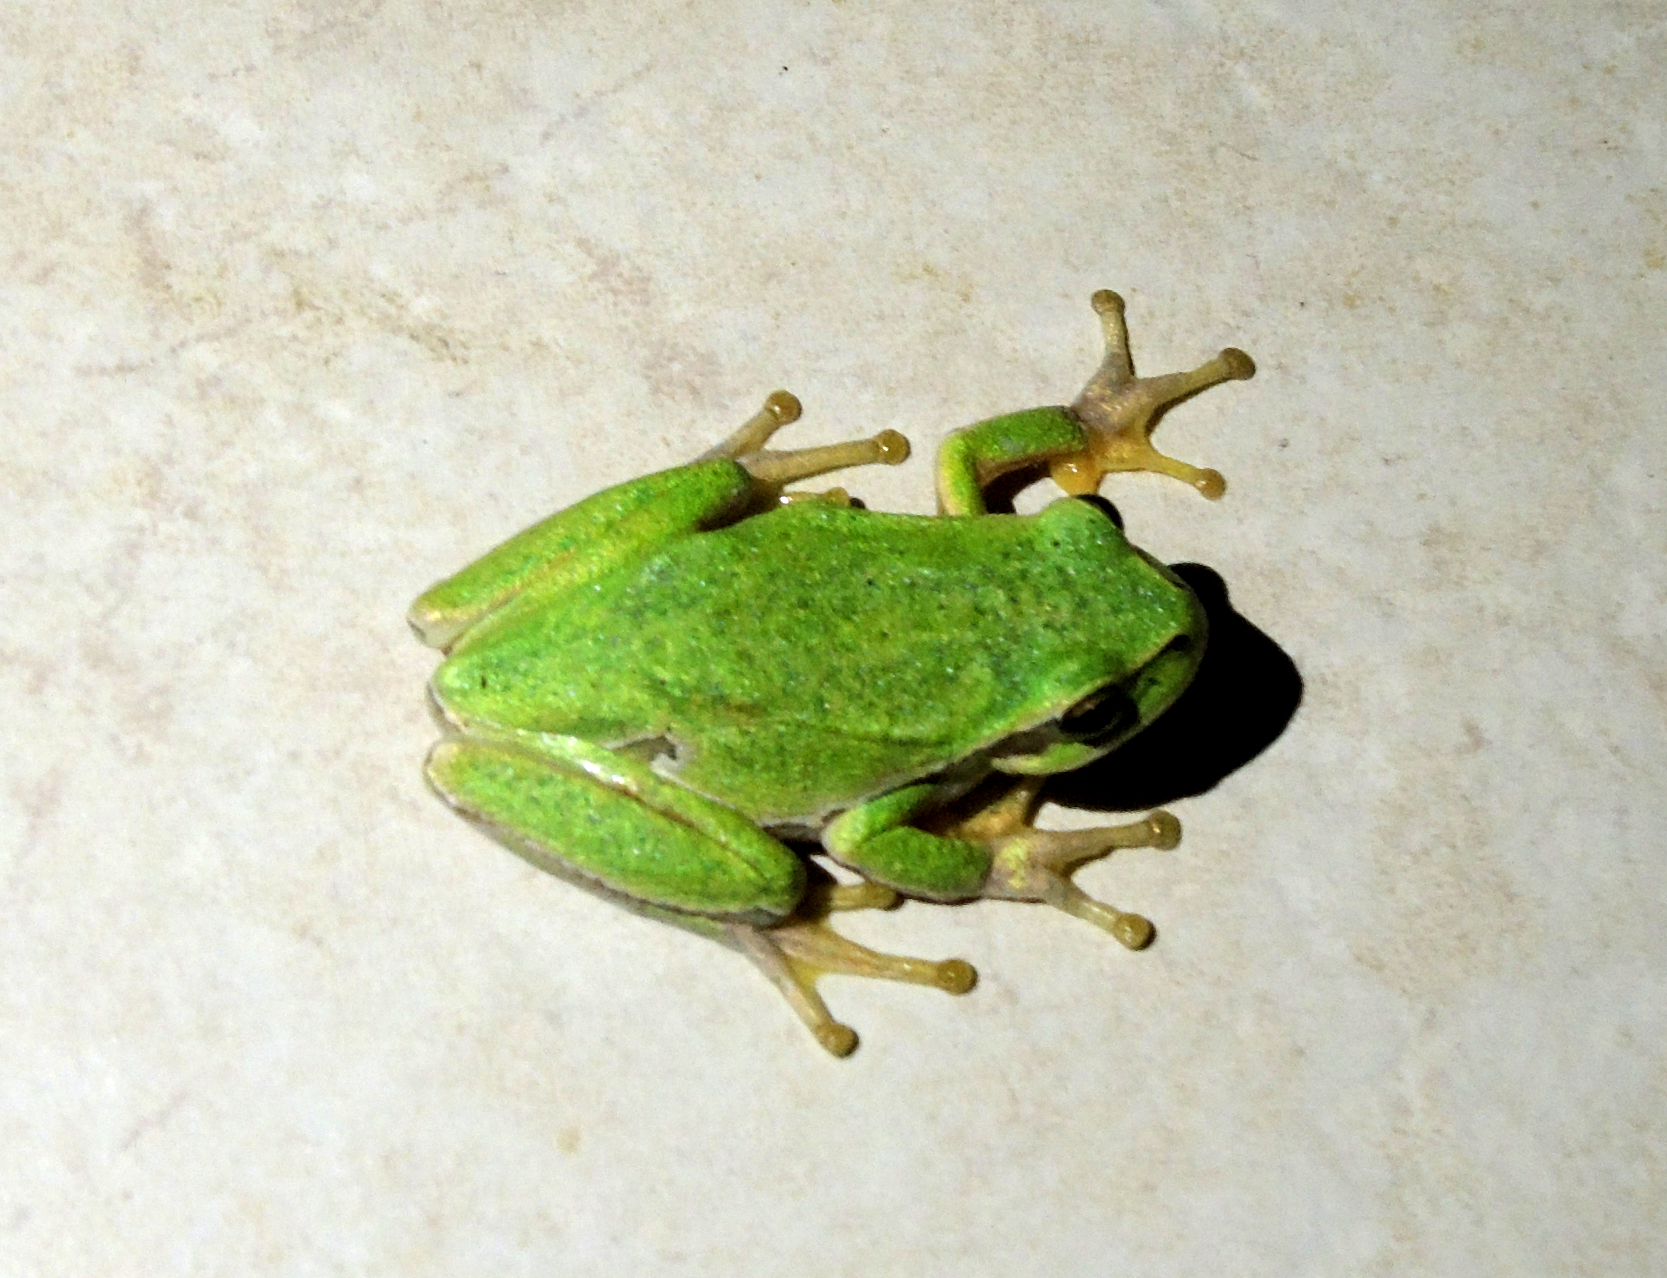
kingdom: Animalia
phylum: Chordata
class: Amphibia
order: Anura
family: Hylidae
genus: Hyla
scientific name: Hyla orientalis
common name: Caucasian treefrog
